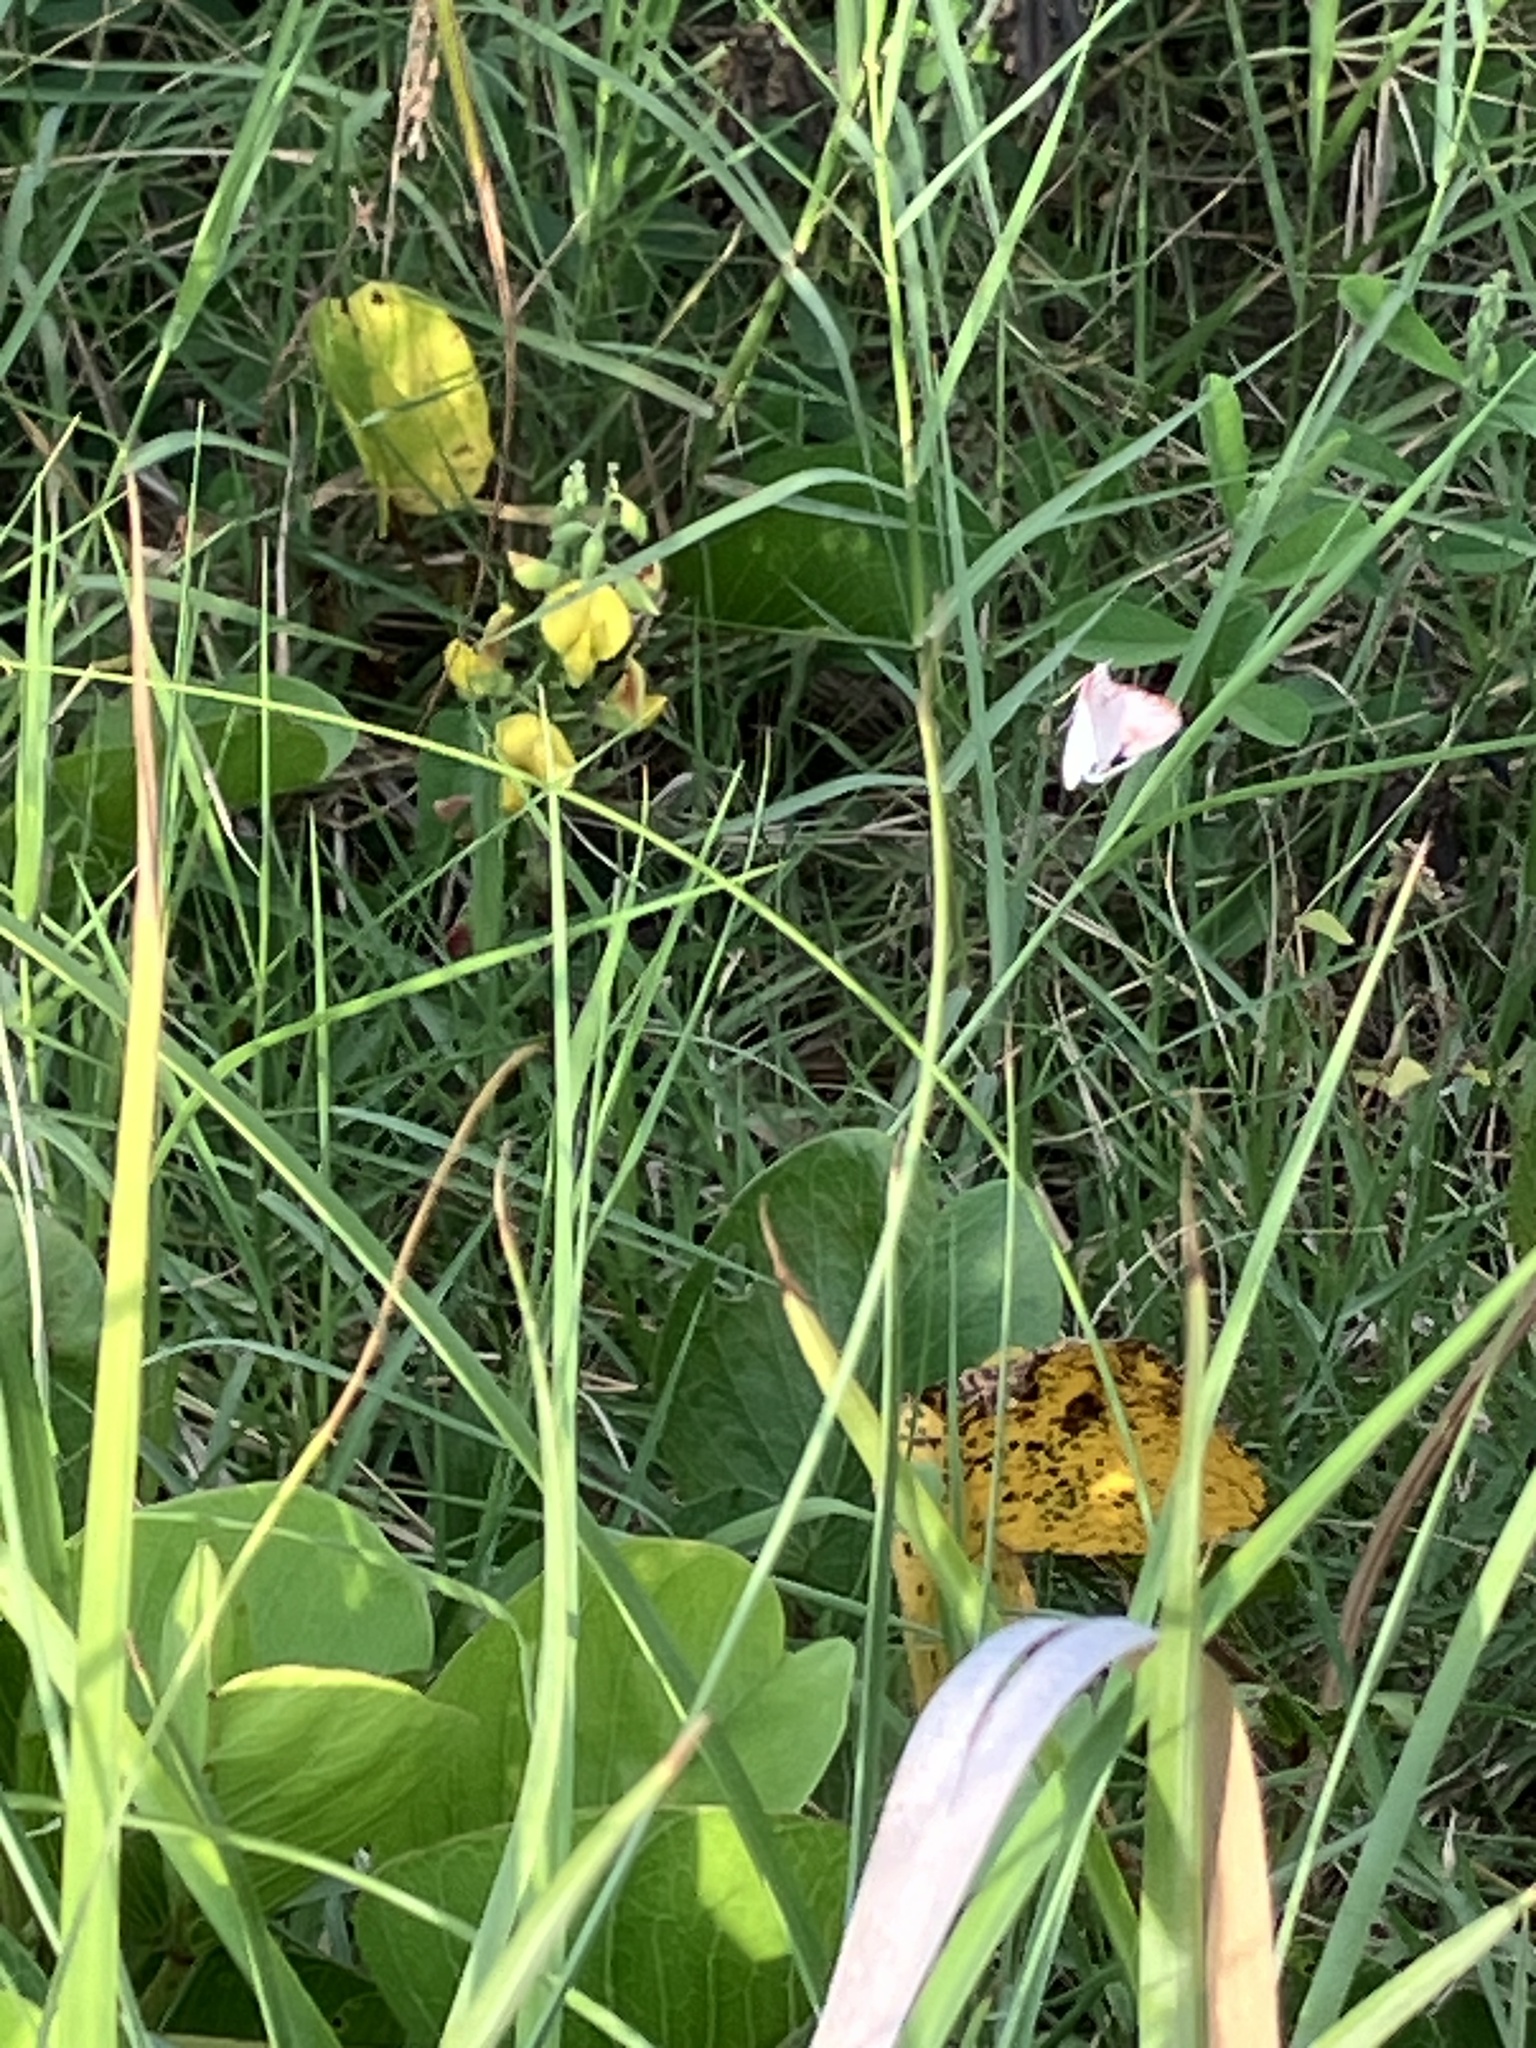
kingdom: Animalia
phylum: Arthropoda
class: Insecta
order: Lepidoptera
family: Erebidae
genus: Utetheisa
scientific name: Utetheisa ornatrix
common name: Beautiful utetheisa
